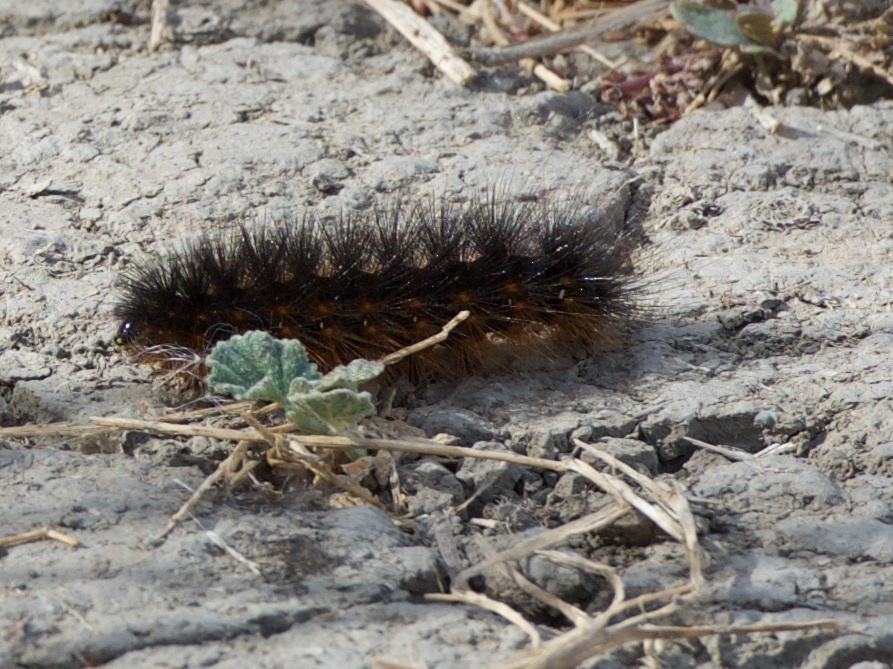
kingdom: Animalia
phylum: Arthropoda
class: Insecta
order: Lepidoptera
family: Erebidae
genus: Estigmene
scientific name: Estigmene acrea
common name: Salt marsh moth
